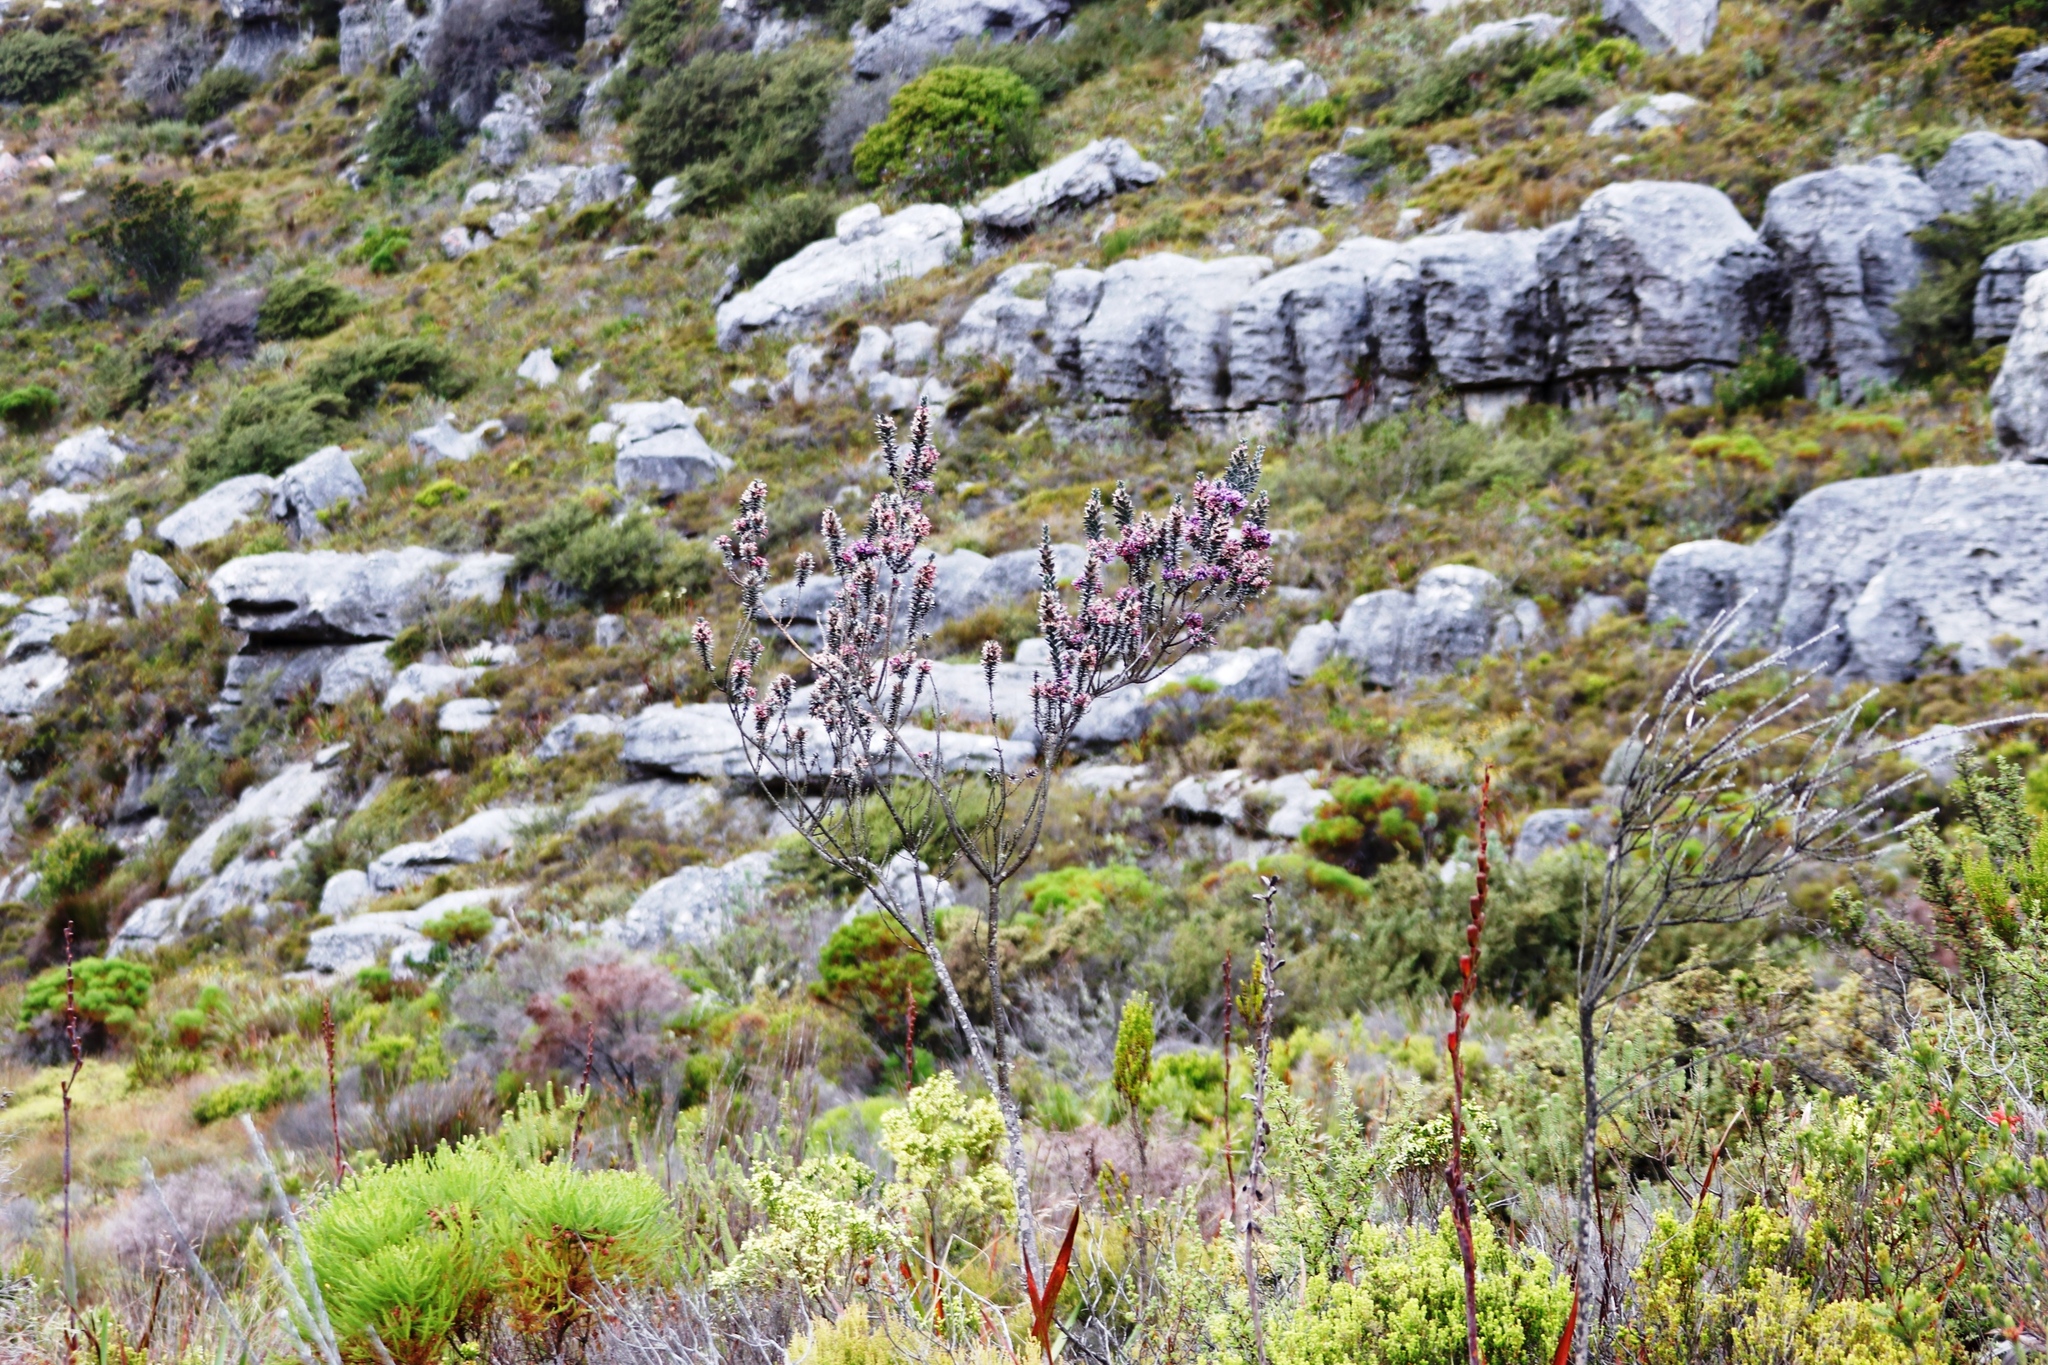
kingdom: Plantae
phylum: Tracheophyta
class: Magnoliopsida
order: Fabales
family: Fabaceae
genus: Amphithalea
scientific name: Amphithalea imbricata
